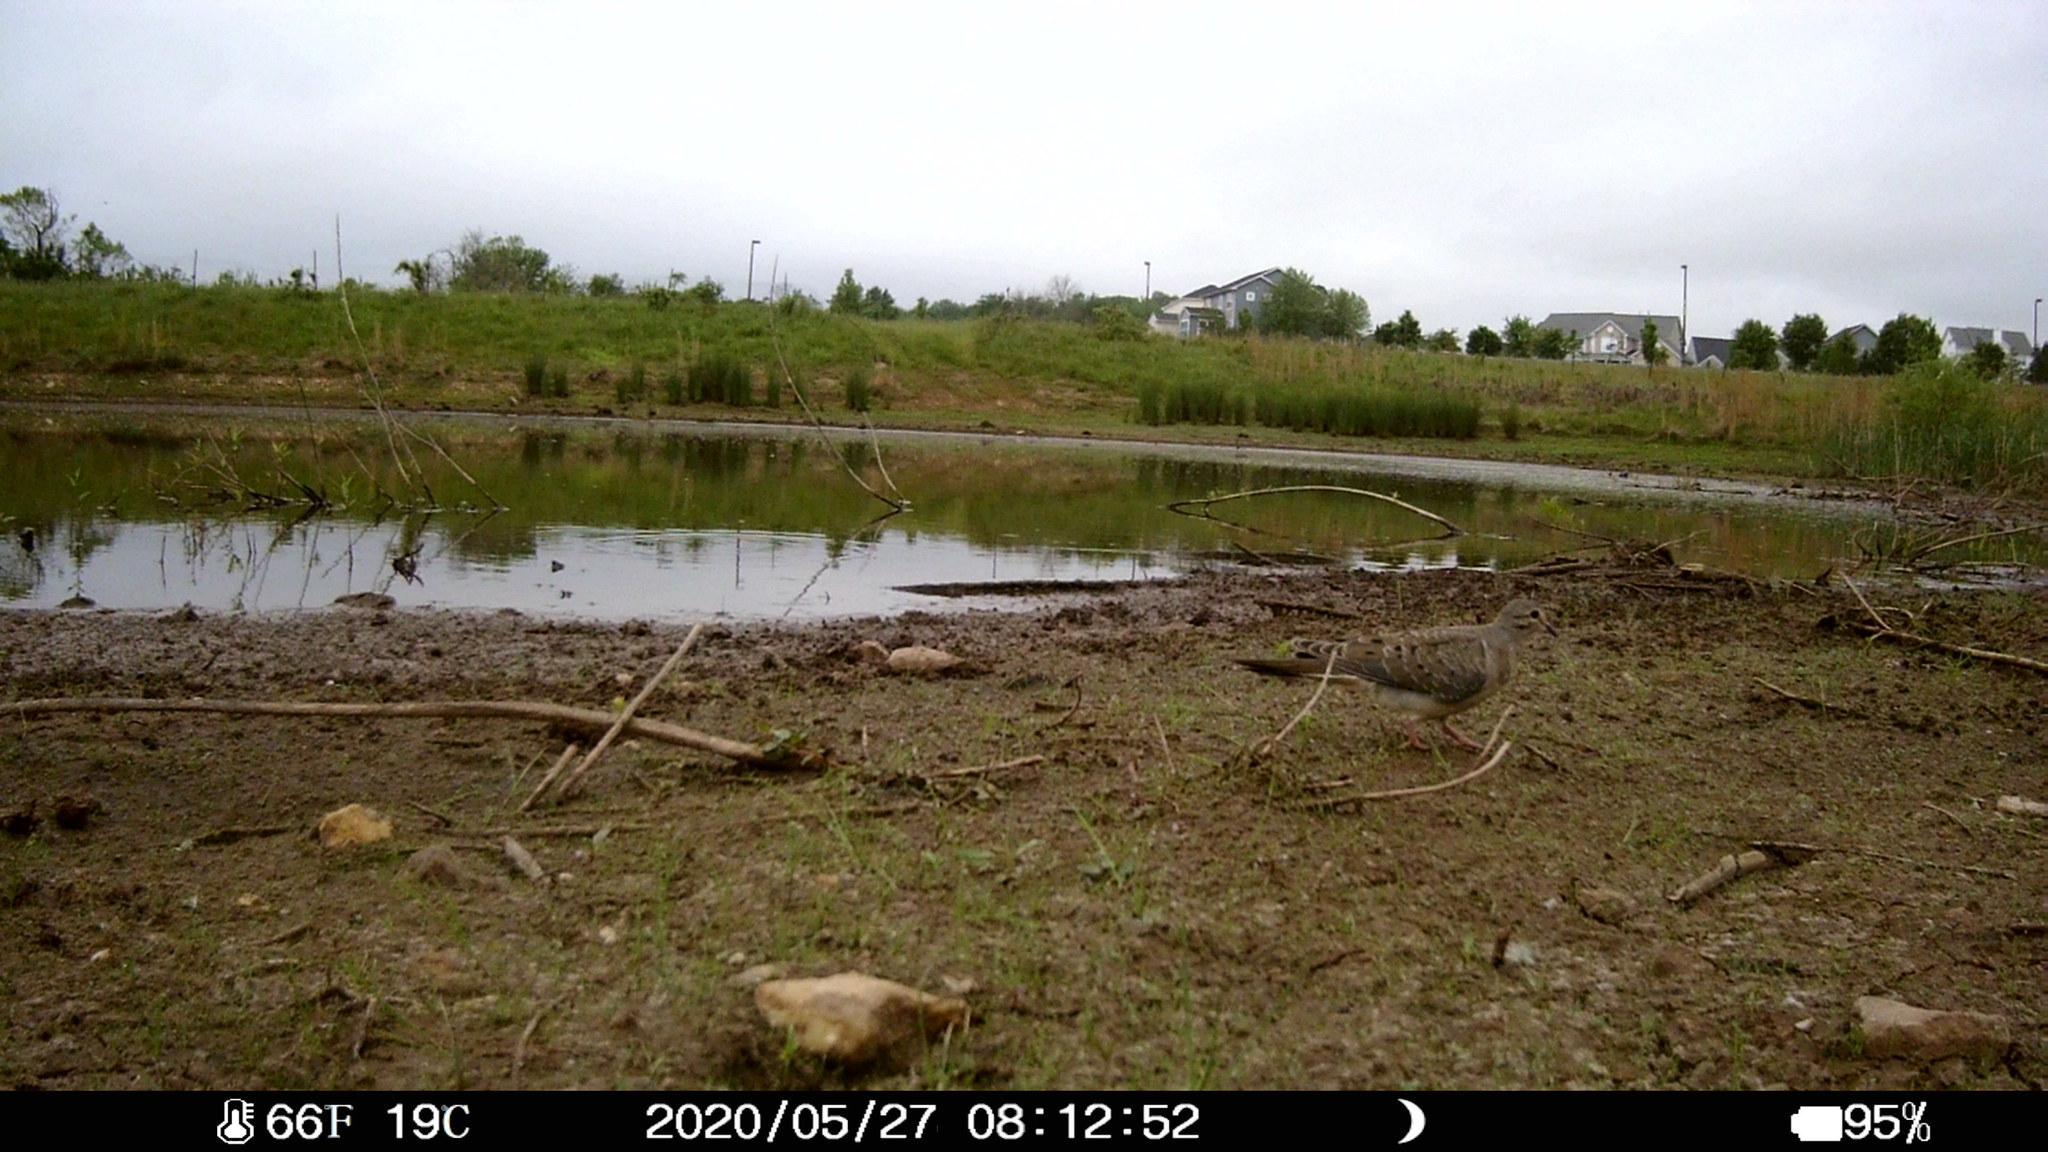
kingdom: Animalia
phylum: Chordata
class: Aves
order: Columbiformes
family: Columbidae
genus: Zenaida
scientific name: Zenaida macroura
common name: Mourning dove
